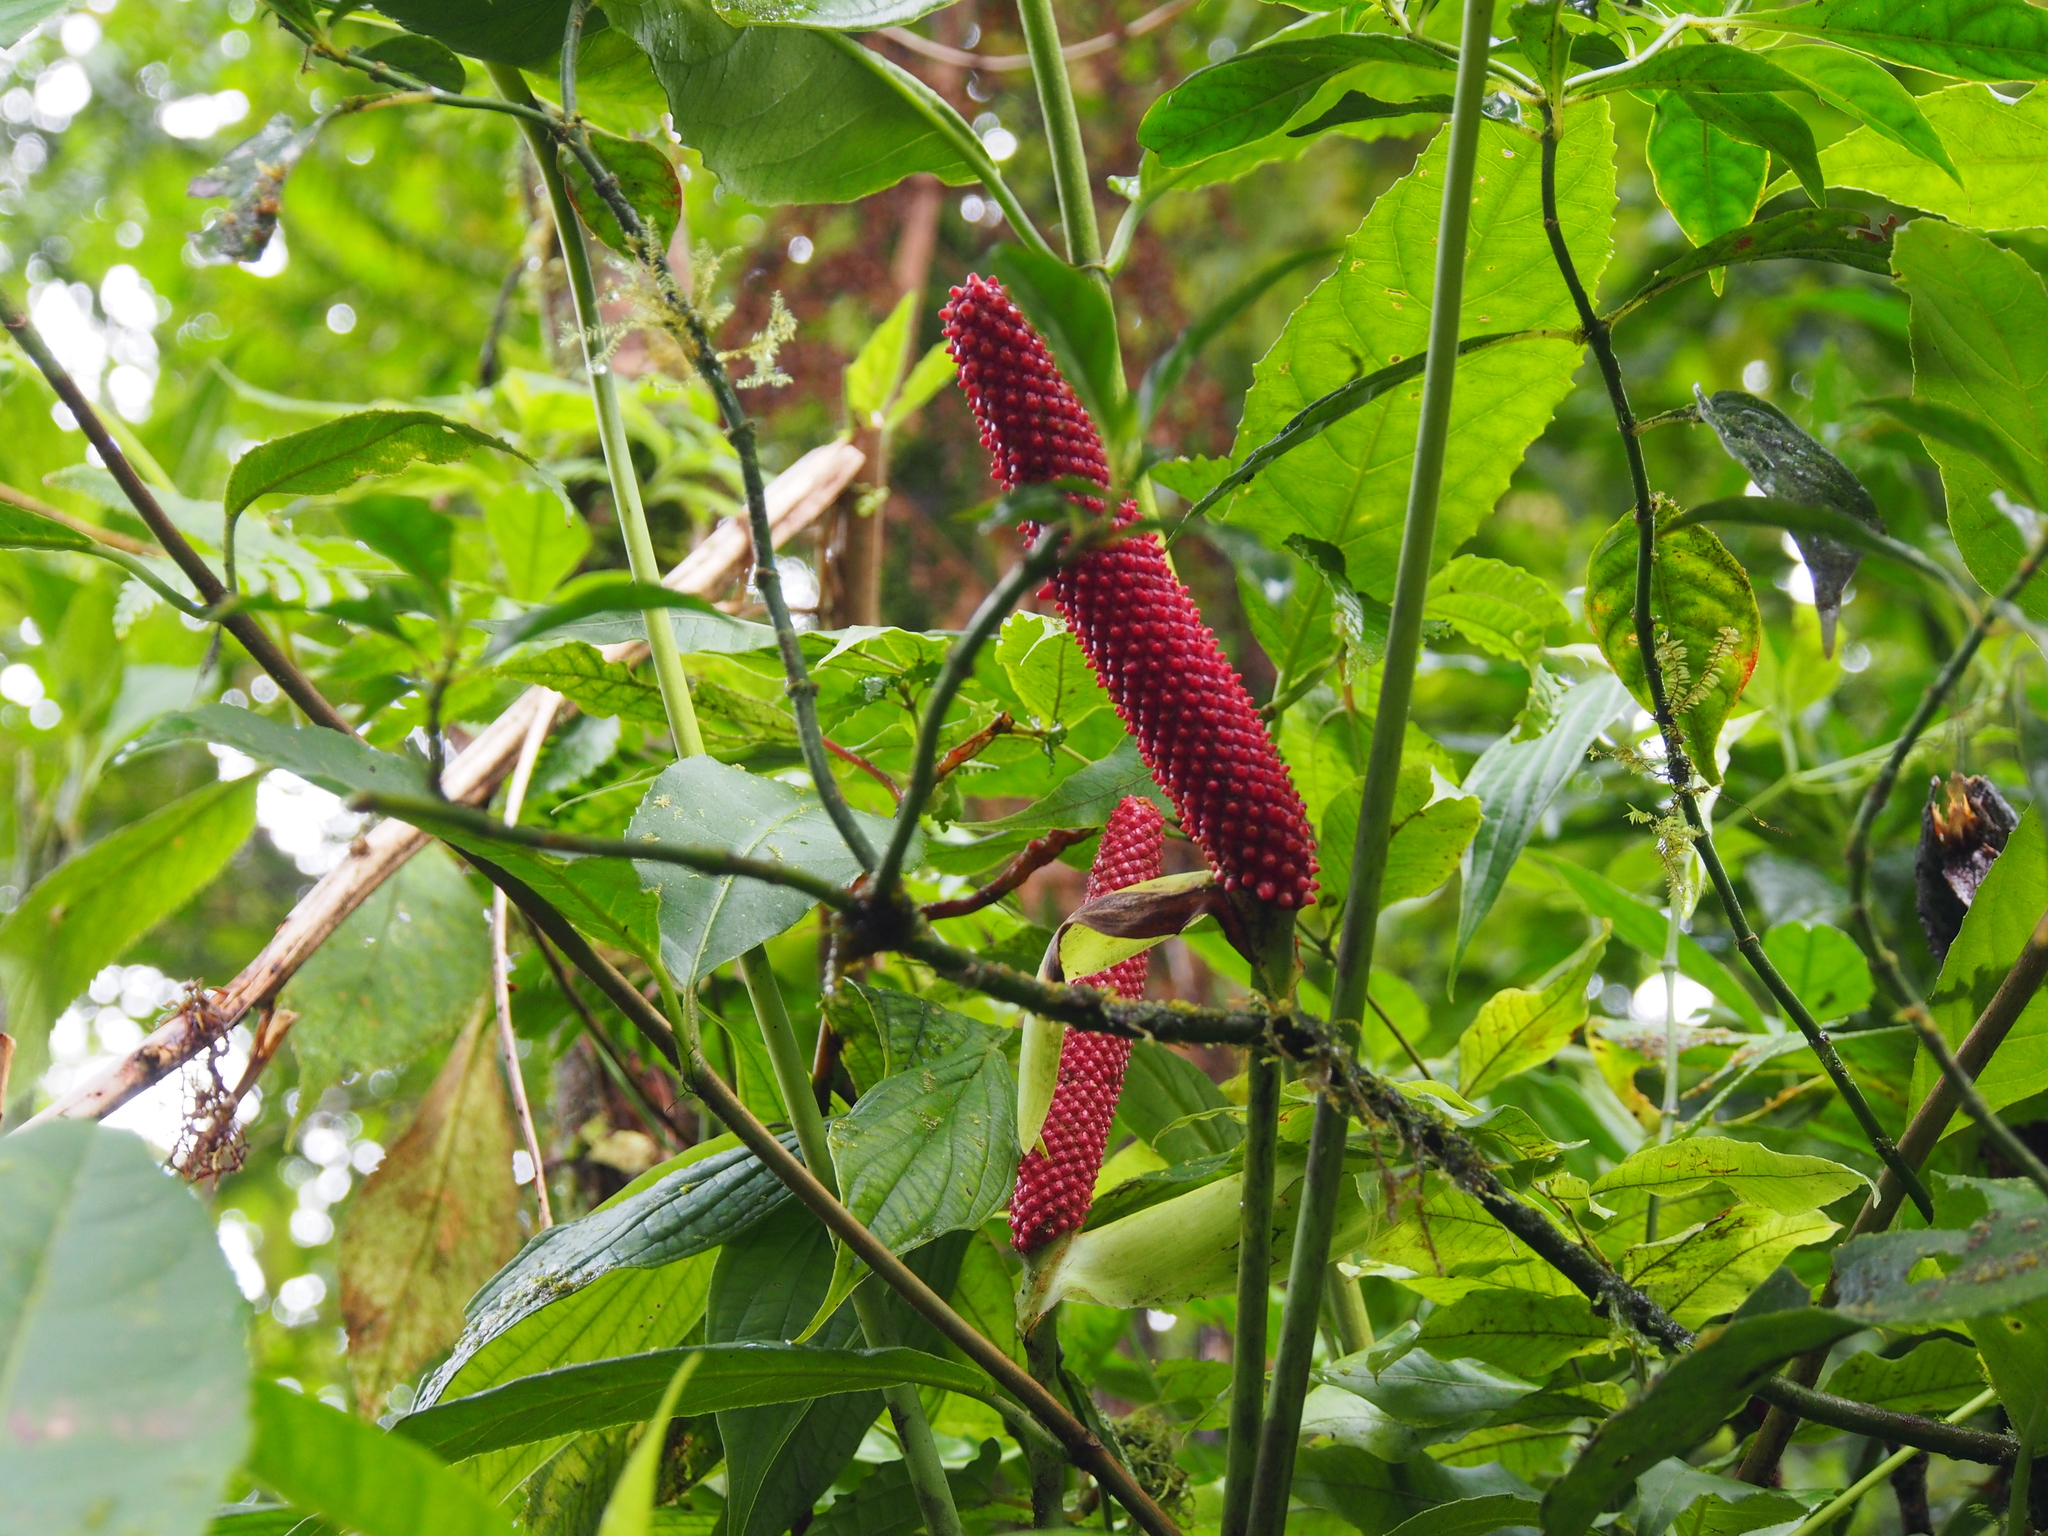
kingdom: Plantae
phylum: Tracheophyta
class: Liliopsida
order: Alismatales
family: Araceae
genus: Anthurium
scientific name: Anthurium bakeri
